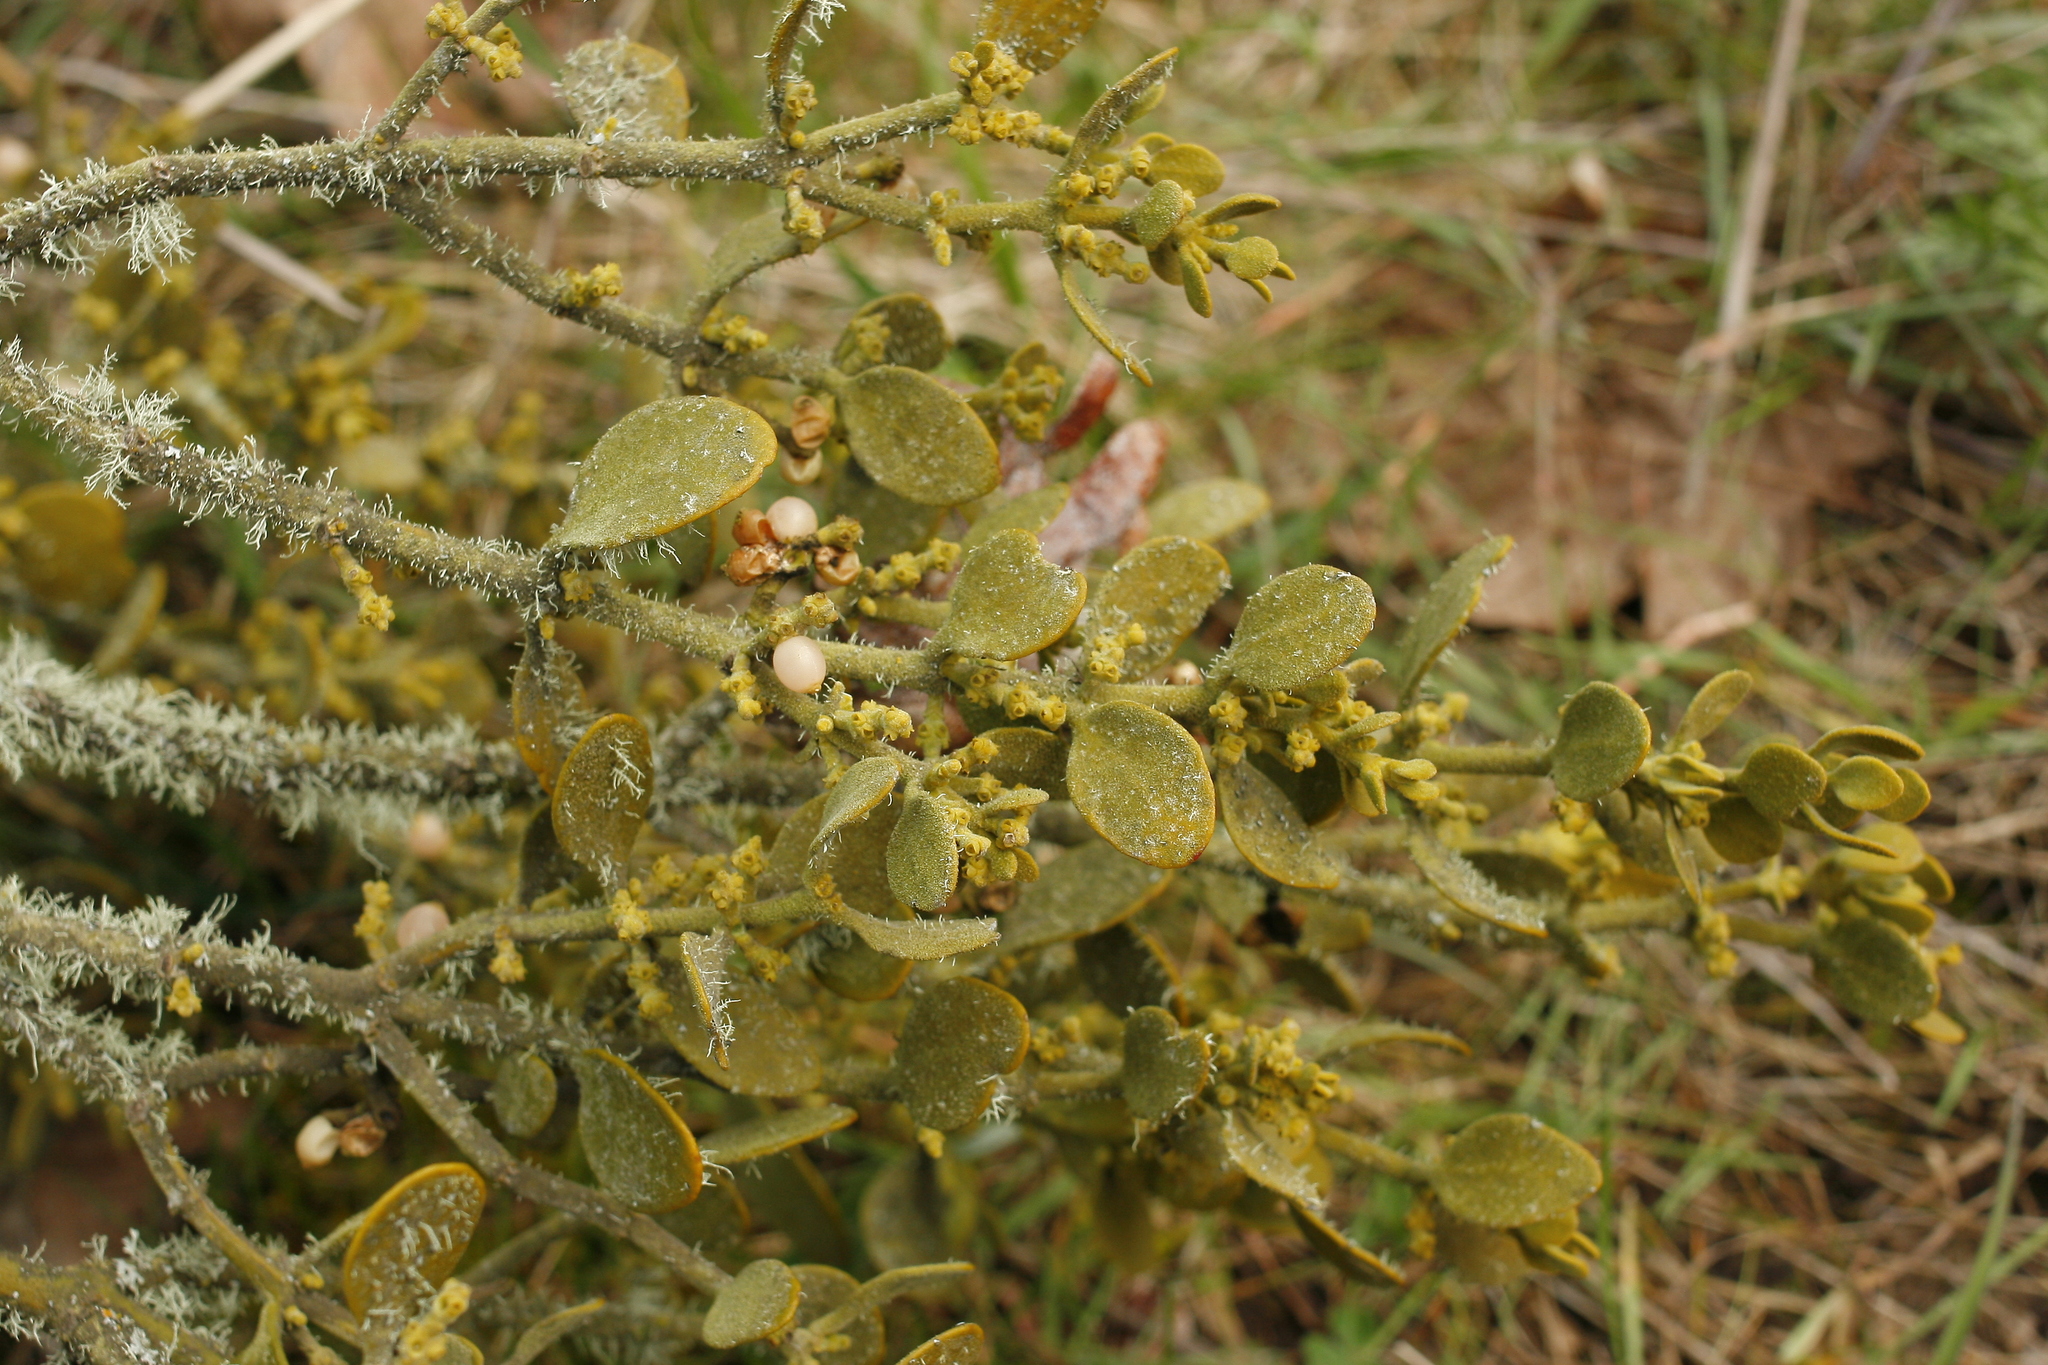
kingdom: Plantae
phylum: Tracheophyta
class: Magnoliopsida
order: Santalales
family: Viscaceae
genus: Phoradendron
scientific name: Phoradendron leucarpum
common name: Pacific mistletoe
